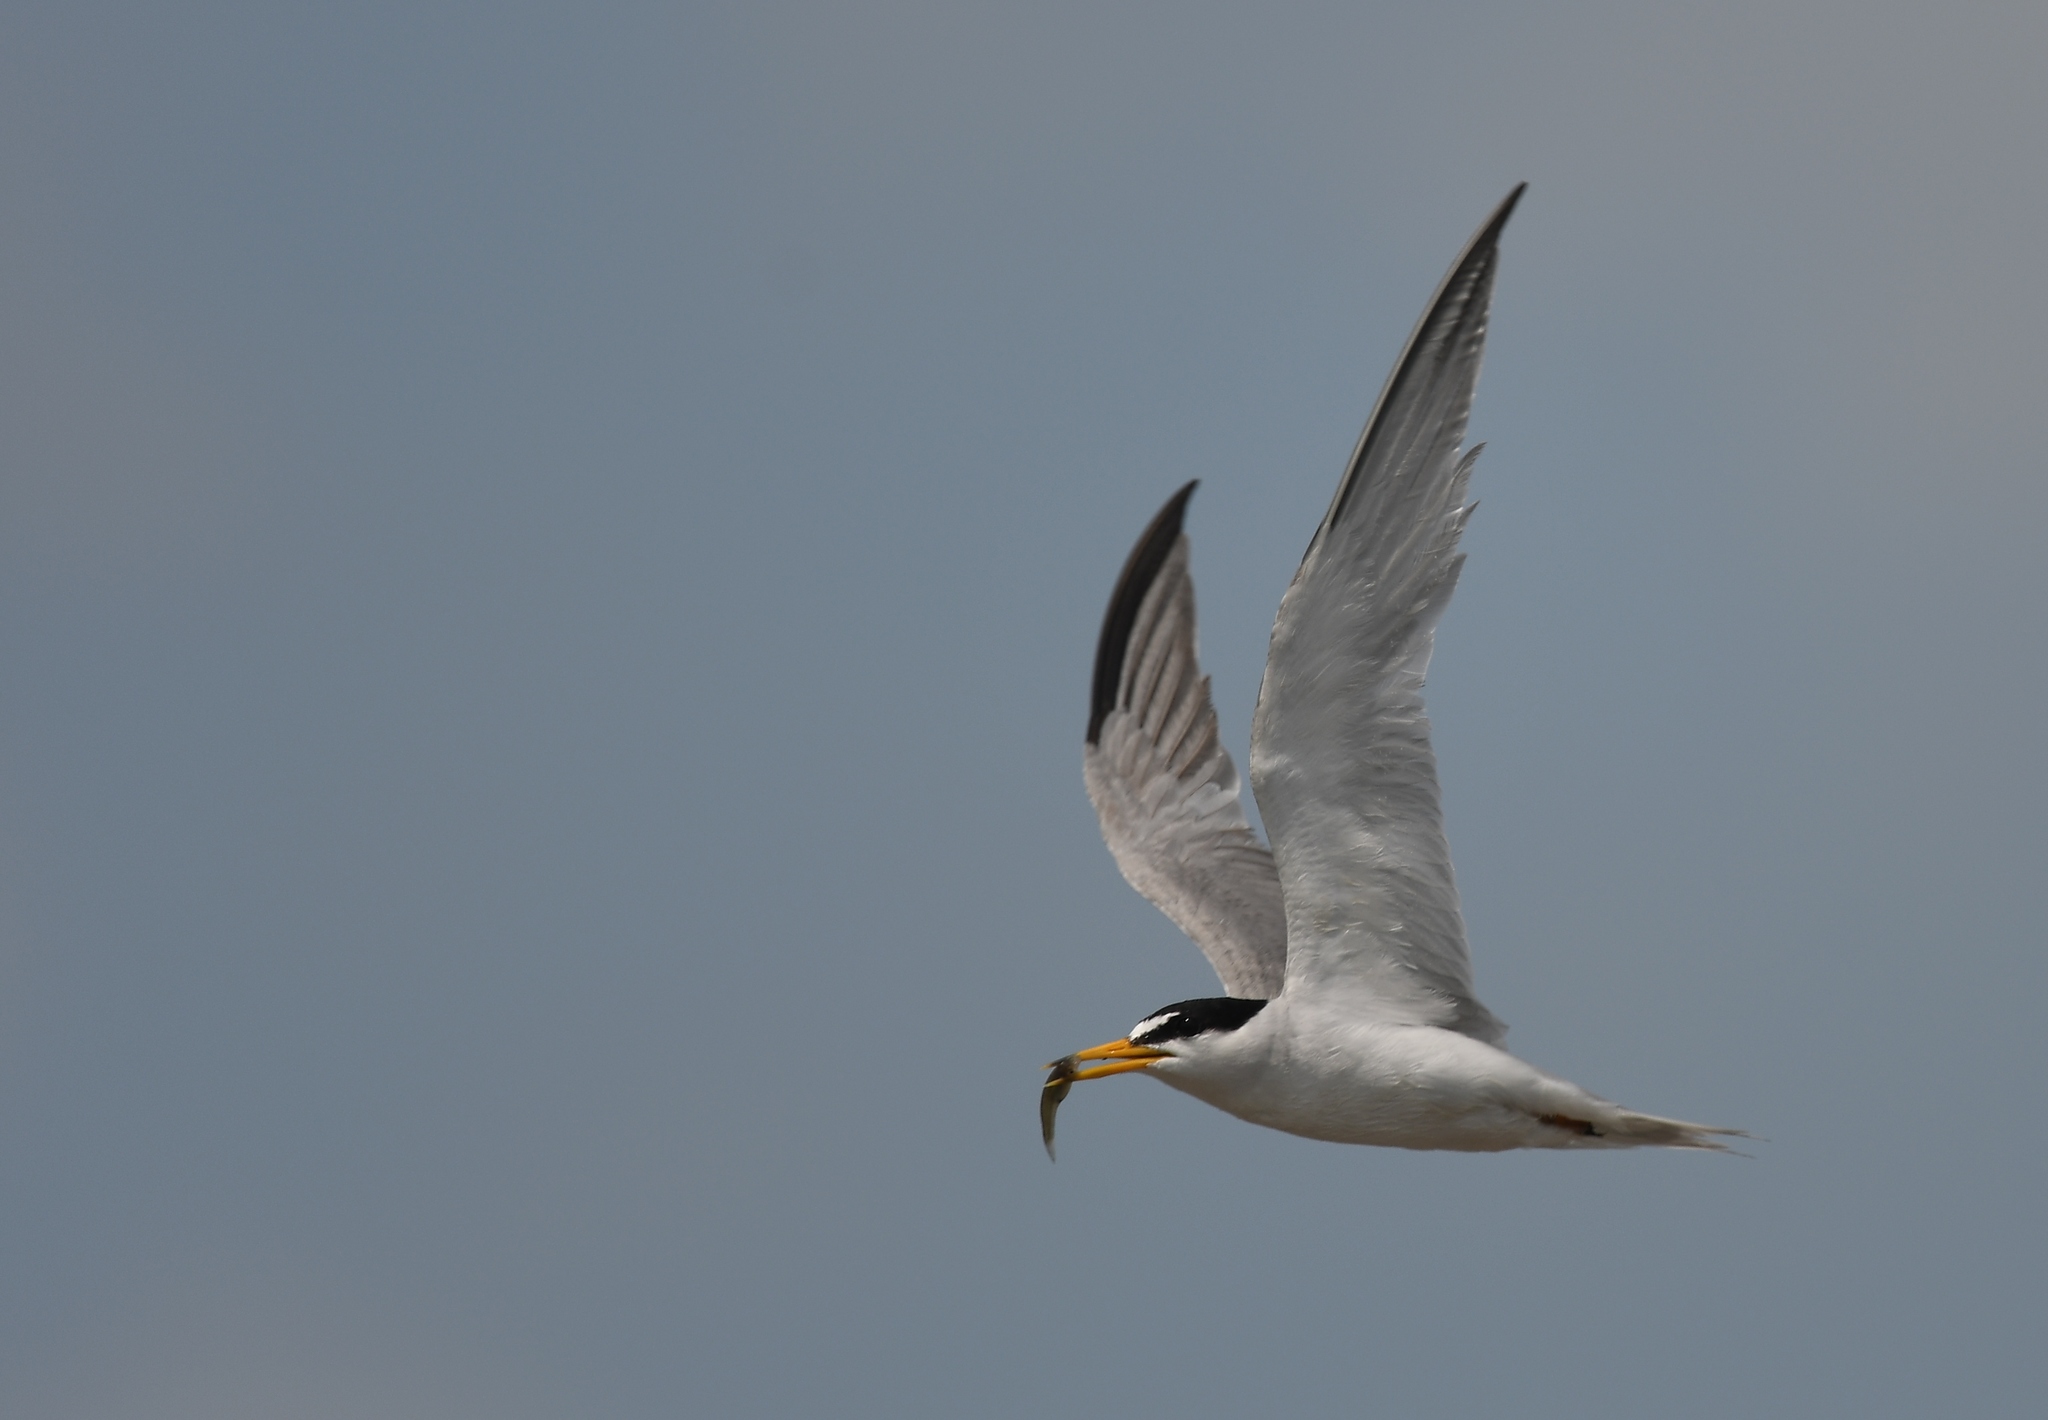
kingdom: Animalia
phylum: Chordata
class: Aves
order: Charadriiformes
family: Laridae
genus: Sternula
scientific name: Sternula antillarum
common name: Least tern
